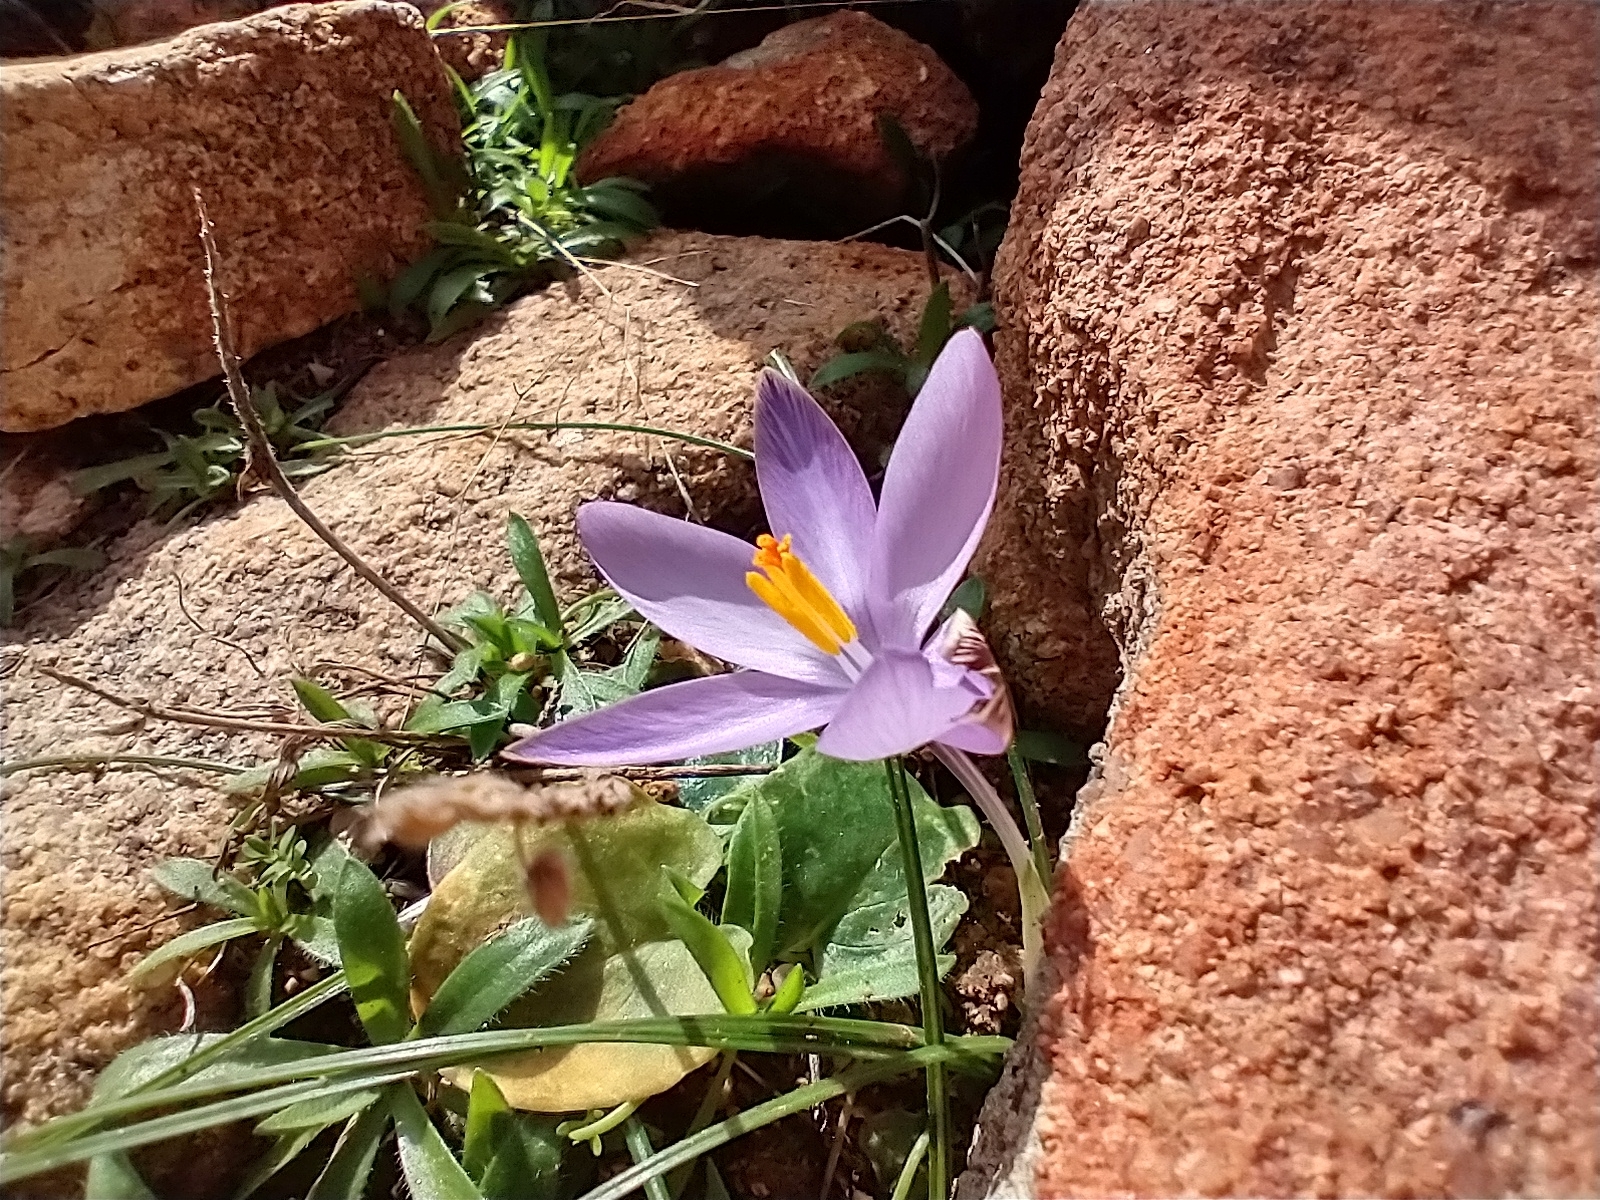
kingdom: Plantae
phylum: Tracheophyta
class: Liliopsida
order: Asparagales
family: Iridaceae
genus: Crocus
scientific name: Crocus minimus
